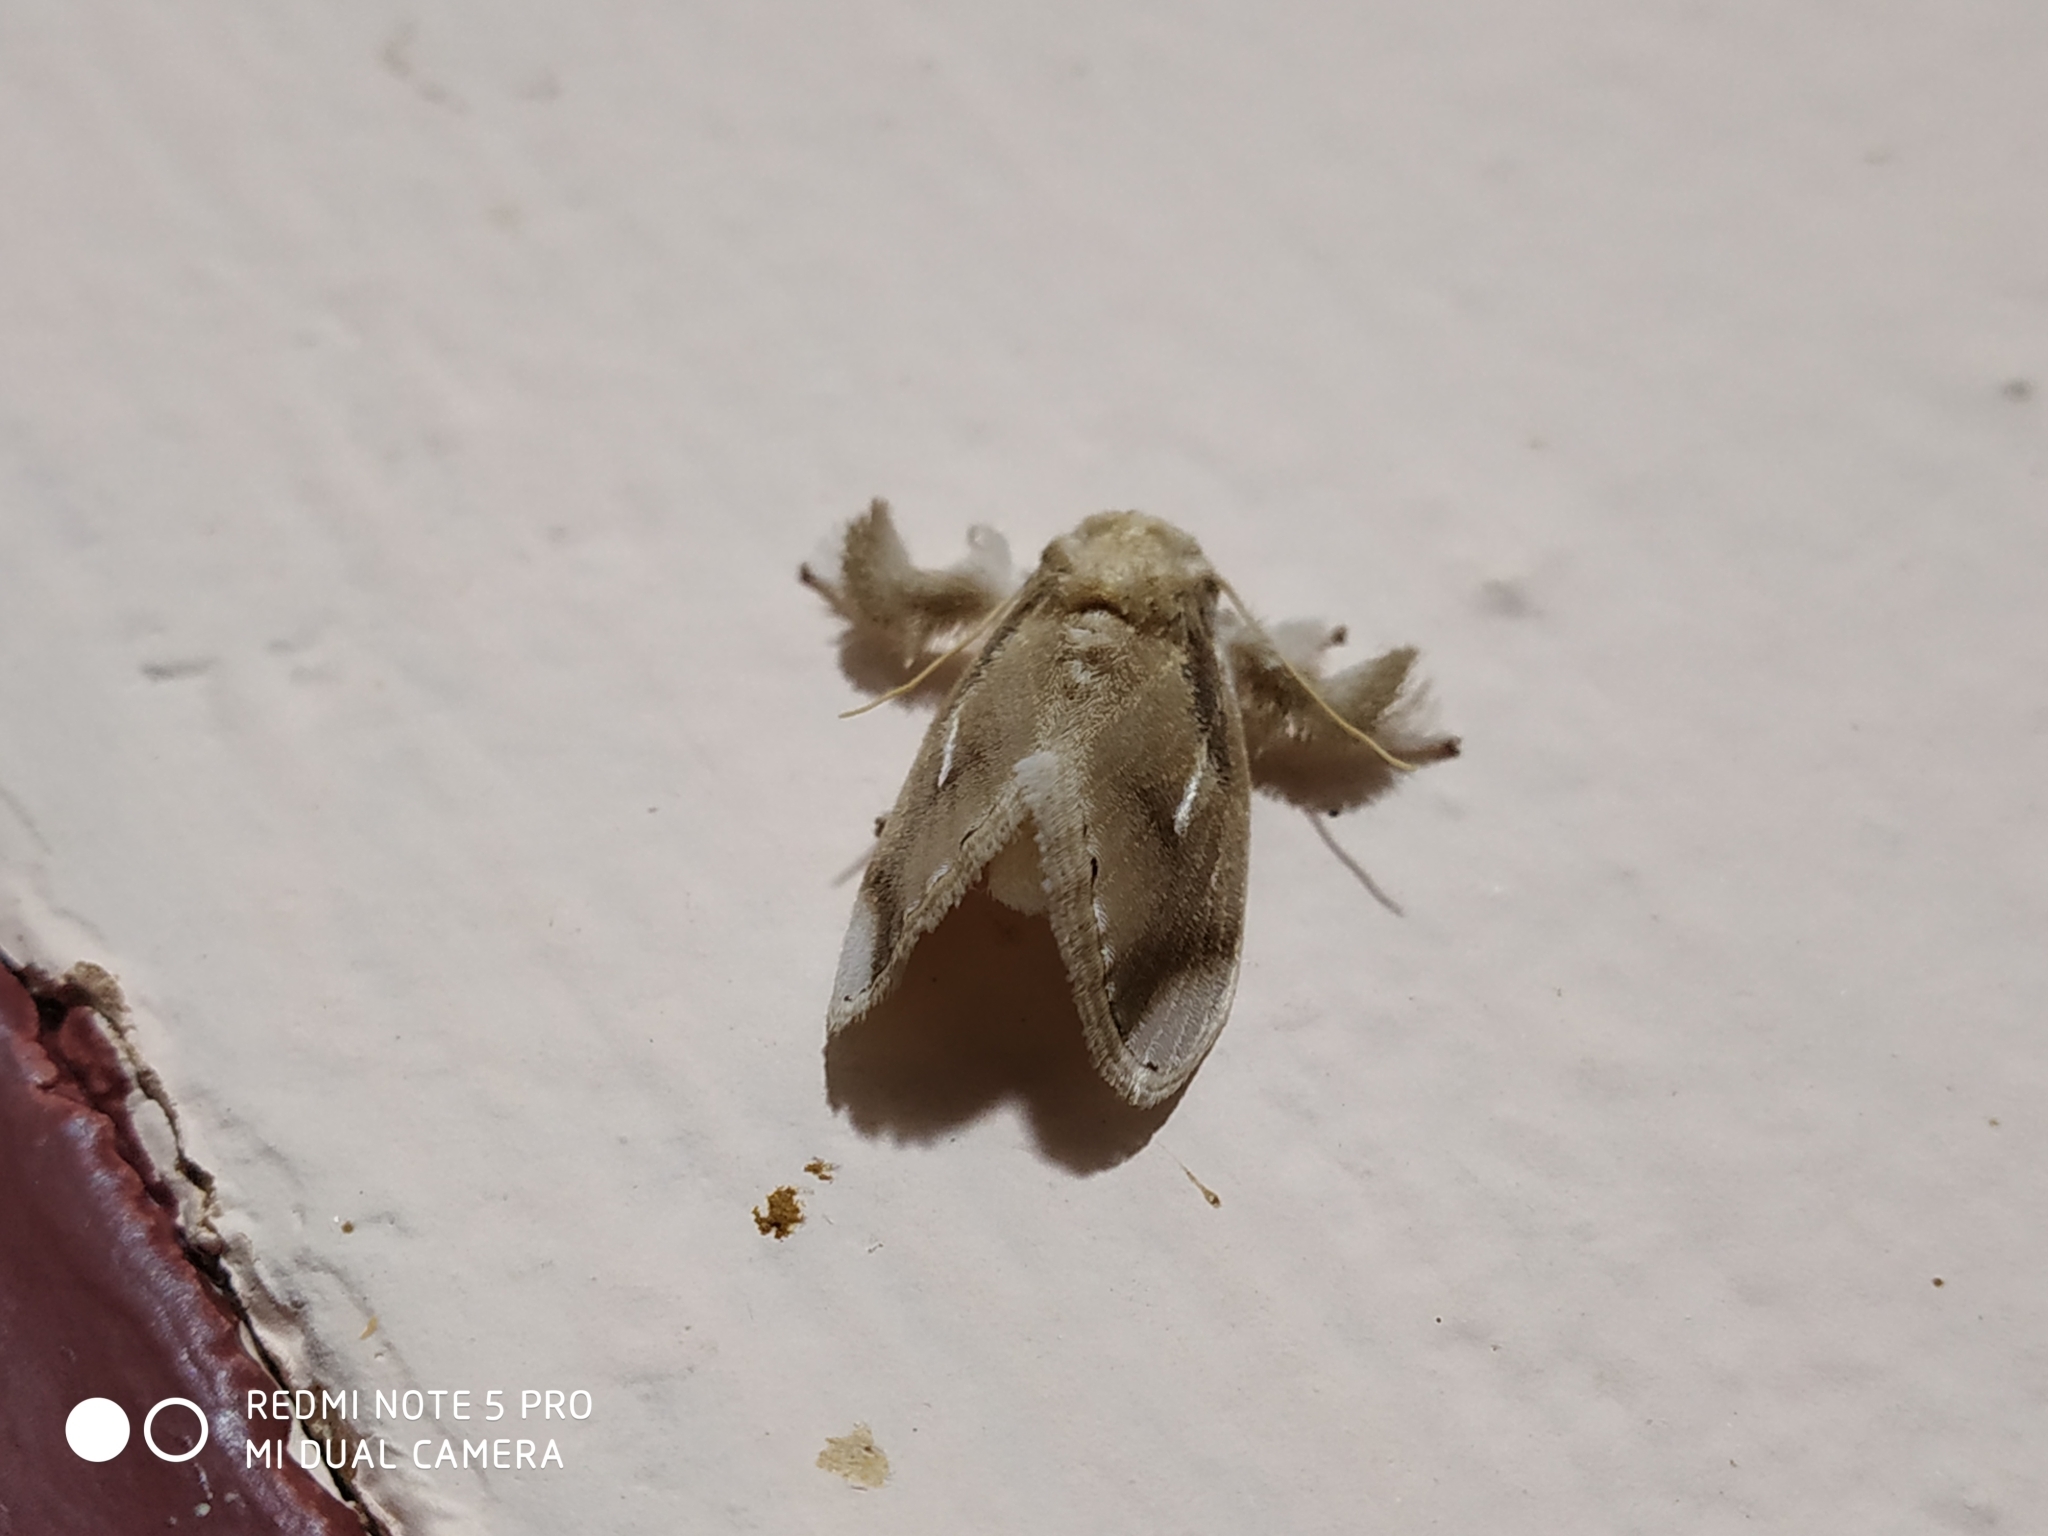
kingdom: Animalia
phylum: Arthropoda
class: Insecta
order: Lepidoptera
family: Limacodidae
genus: Narosa
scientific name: Narosa argentipuncta
